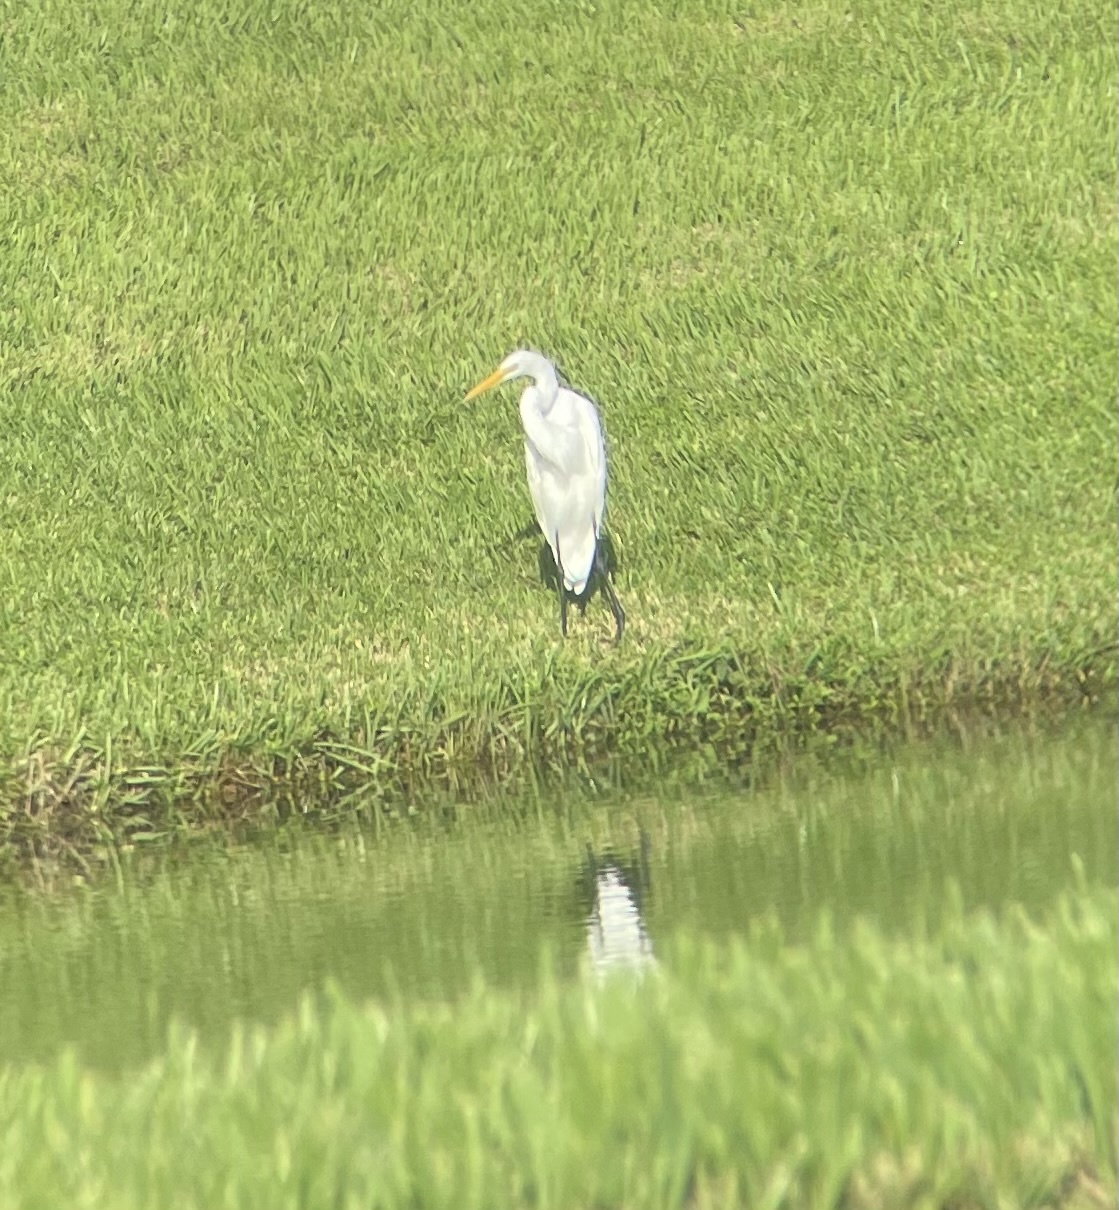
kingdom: Animalia
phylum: Chordata
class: Aves
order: Pelecaniformes
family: Ardeidae
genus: Ardea
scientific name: Ardea alba
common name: Great egret
